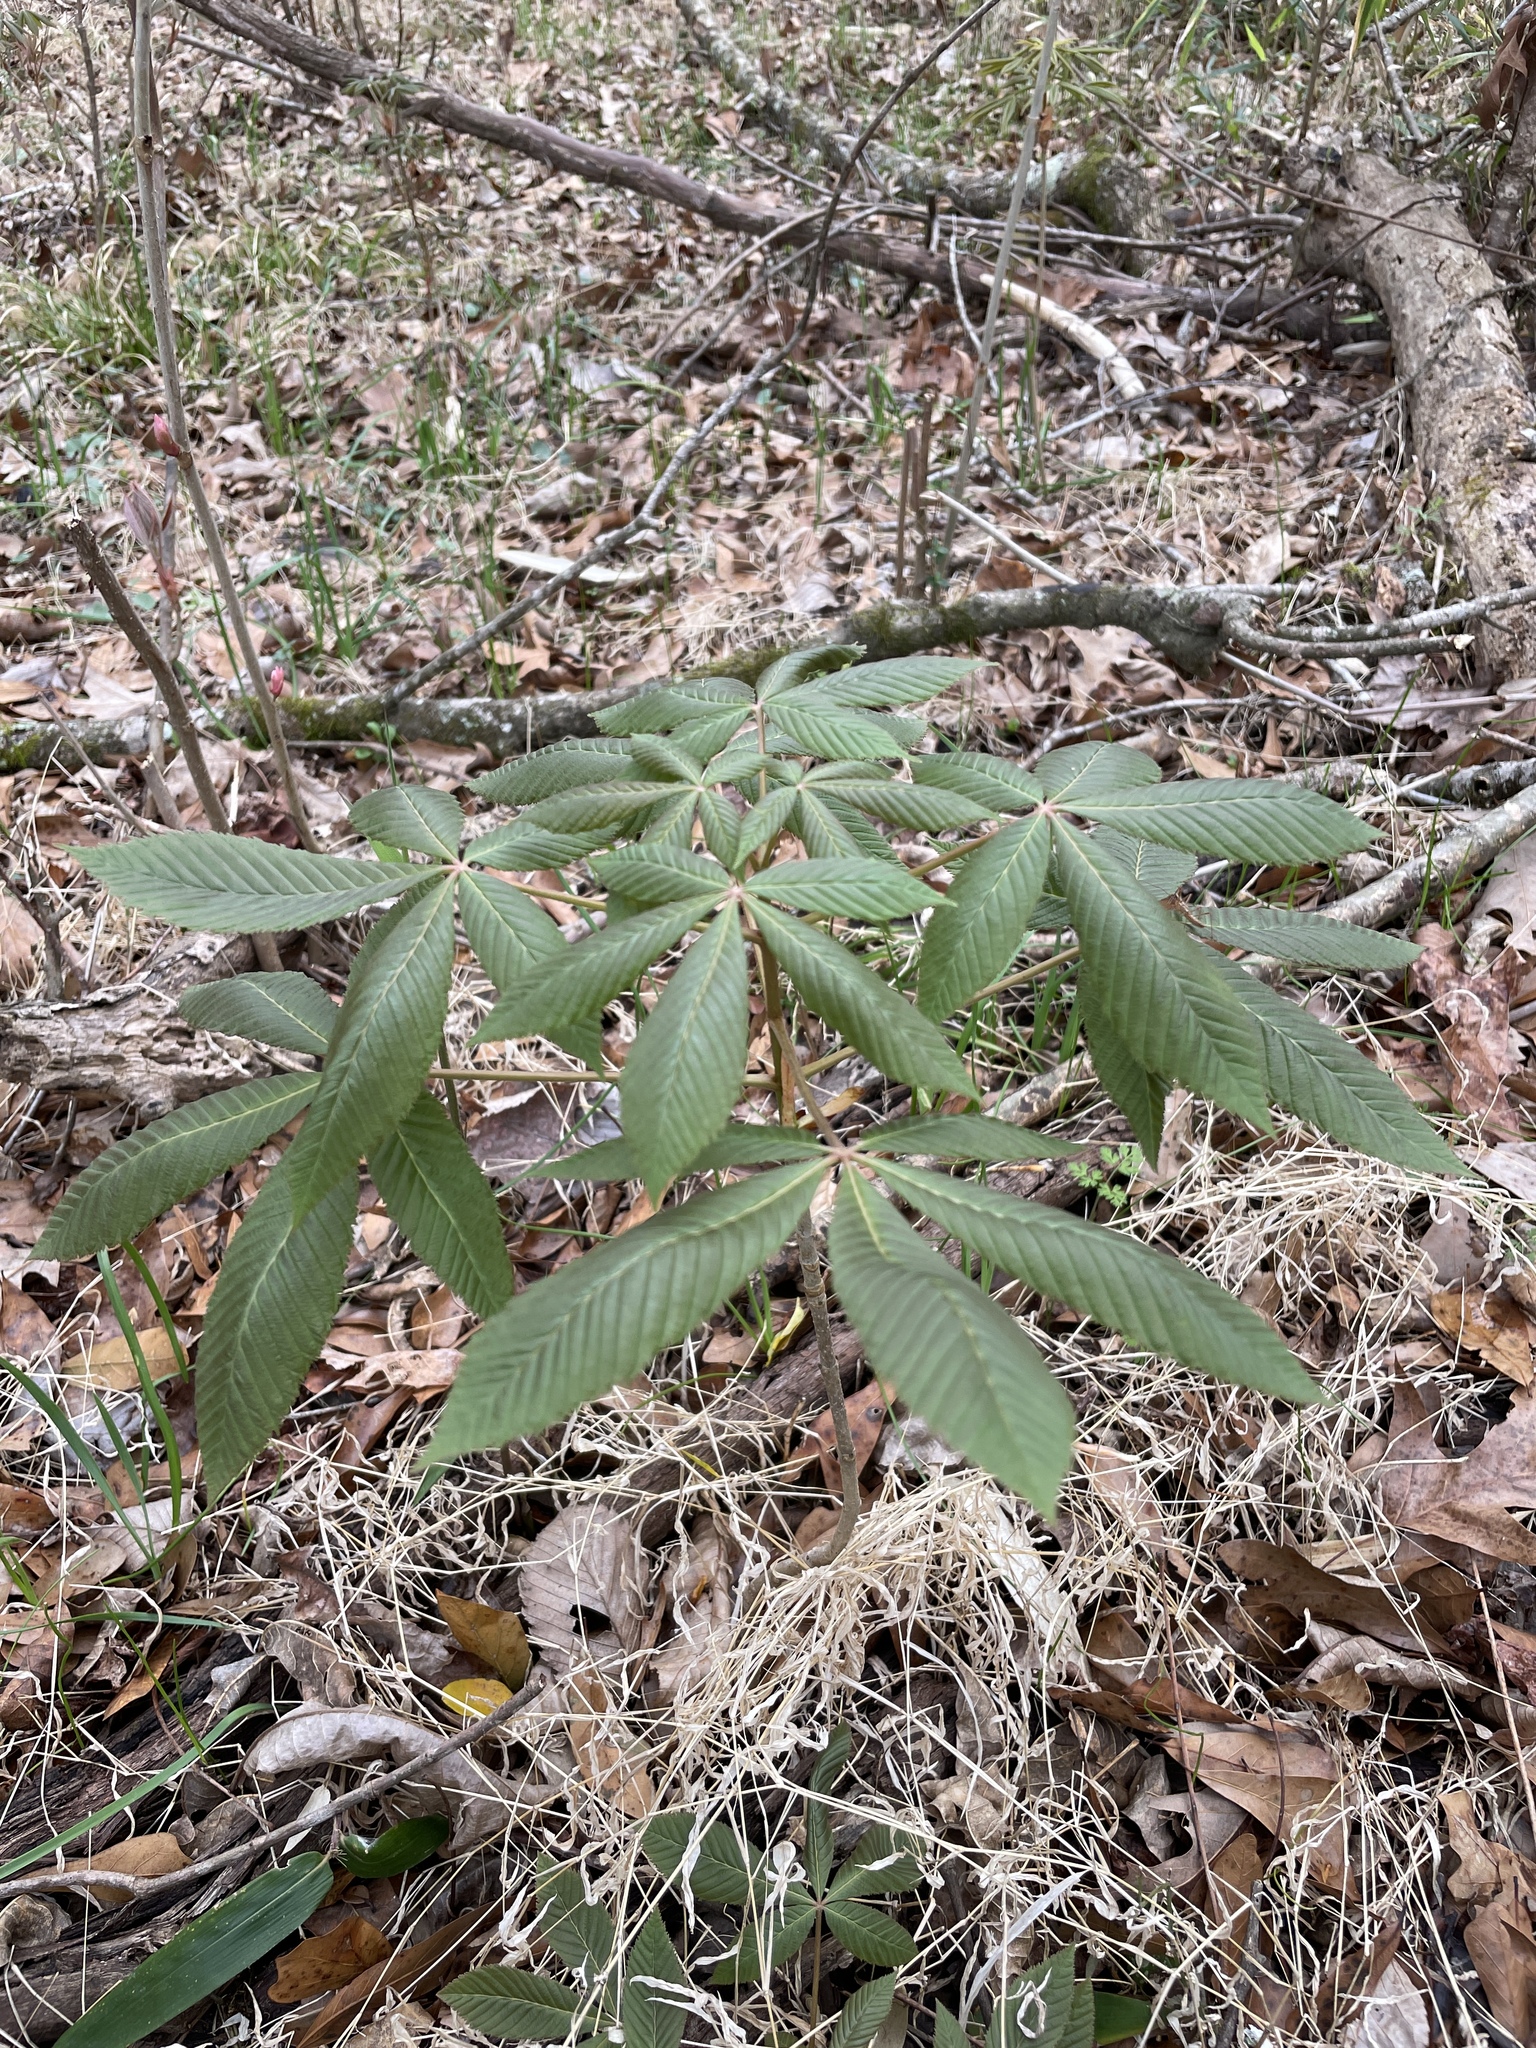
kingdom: Plantae
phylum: Tracheophyta
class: Magnoliopsida
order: Sapindales
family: Sapindaceae
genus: Aesculus
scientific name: Aesculus pavia
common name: Red buckeye
